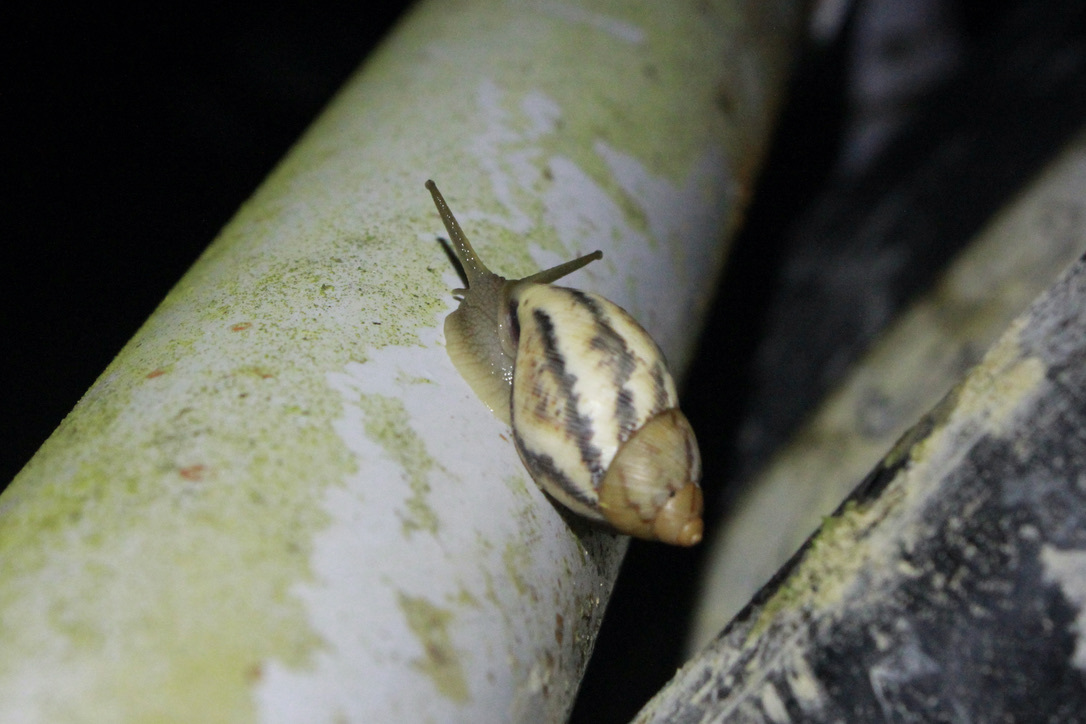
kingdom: Animalia
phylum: Mollusca
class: Gastropoda
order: Stylommatophora
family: Amphibulimidae
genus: Plekocheilus
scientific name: Plekocheilus glaber
